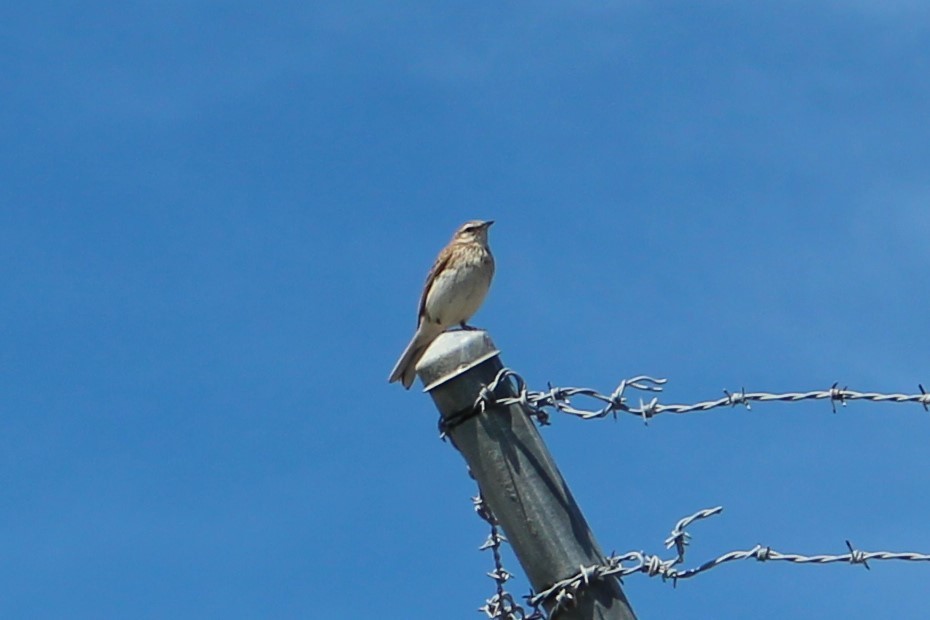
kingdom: Animalia
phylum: Chordata
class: Aves
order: Passeriformes
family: Motacillidae
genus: Anthus
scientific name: Anthus novaeseelandiae
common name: New zealand pipit
